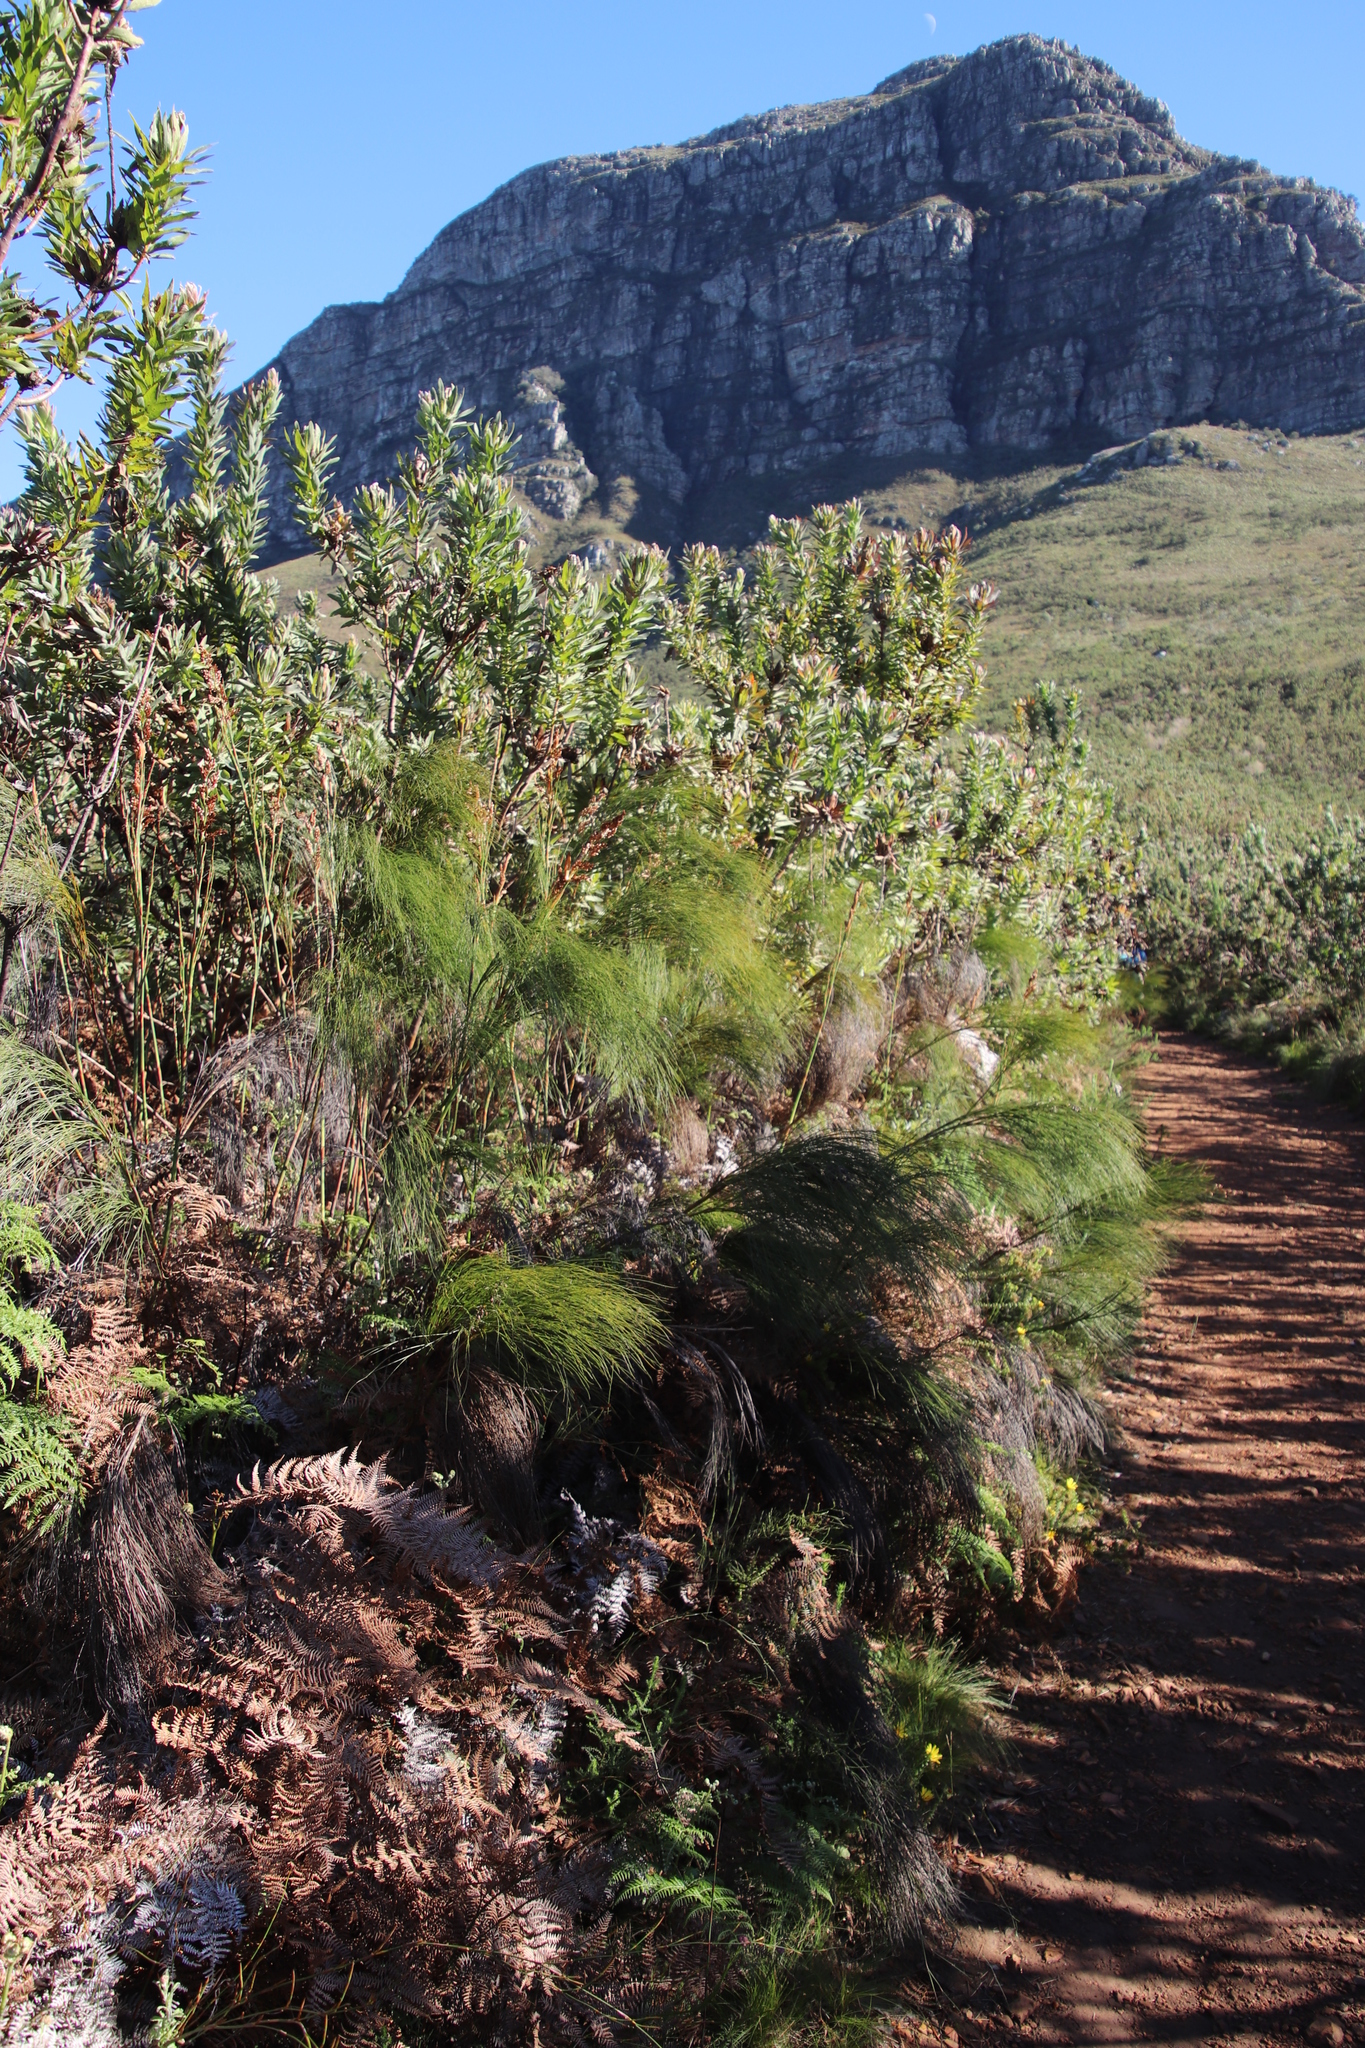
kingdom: Plantae
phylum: Tracheophyta
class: Liliopsida
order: Poales
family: Restionaceae
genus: Cannomois
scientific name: Cannomois virgata
